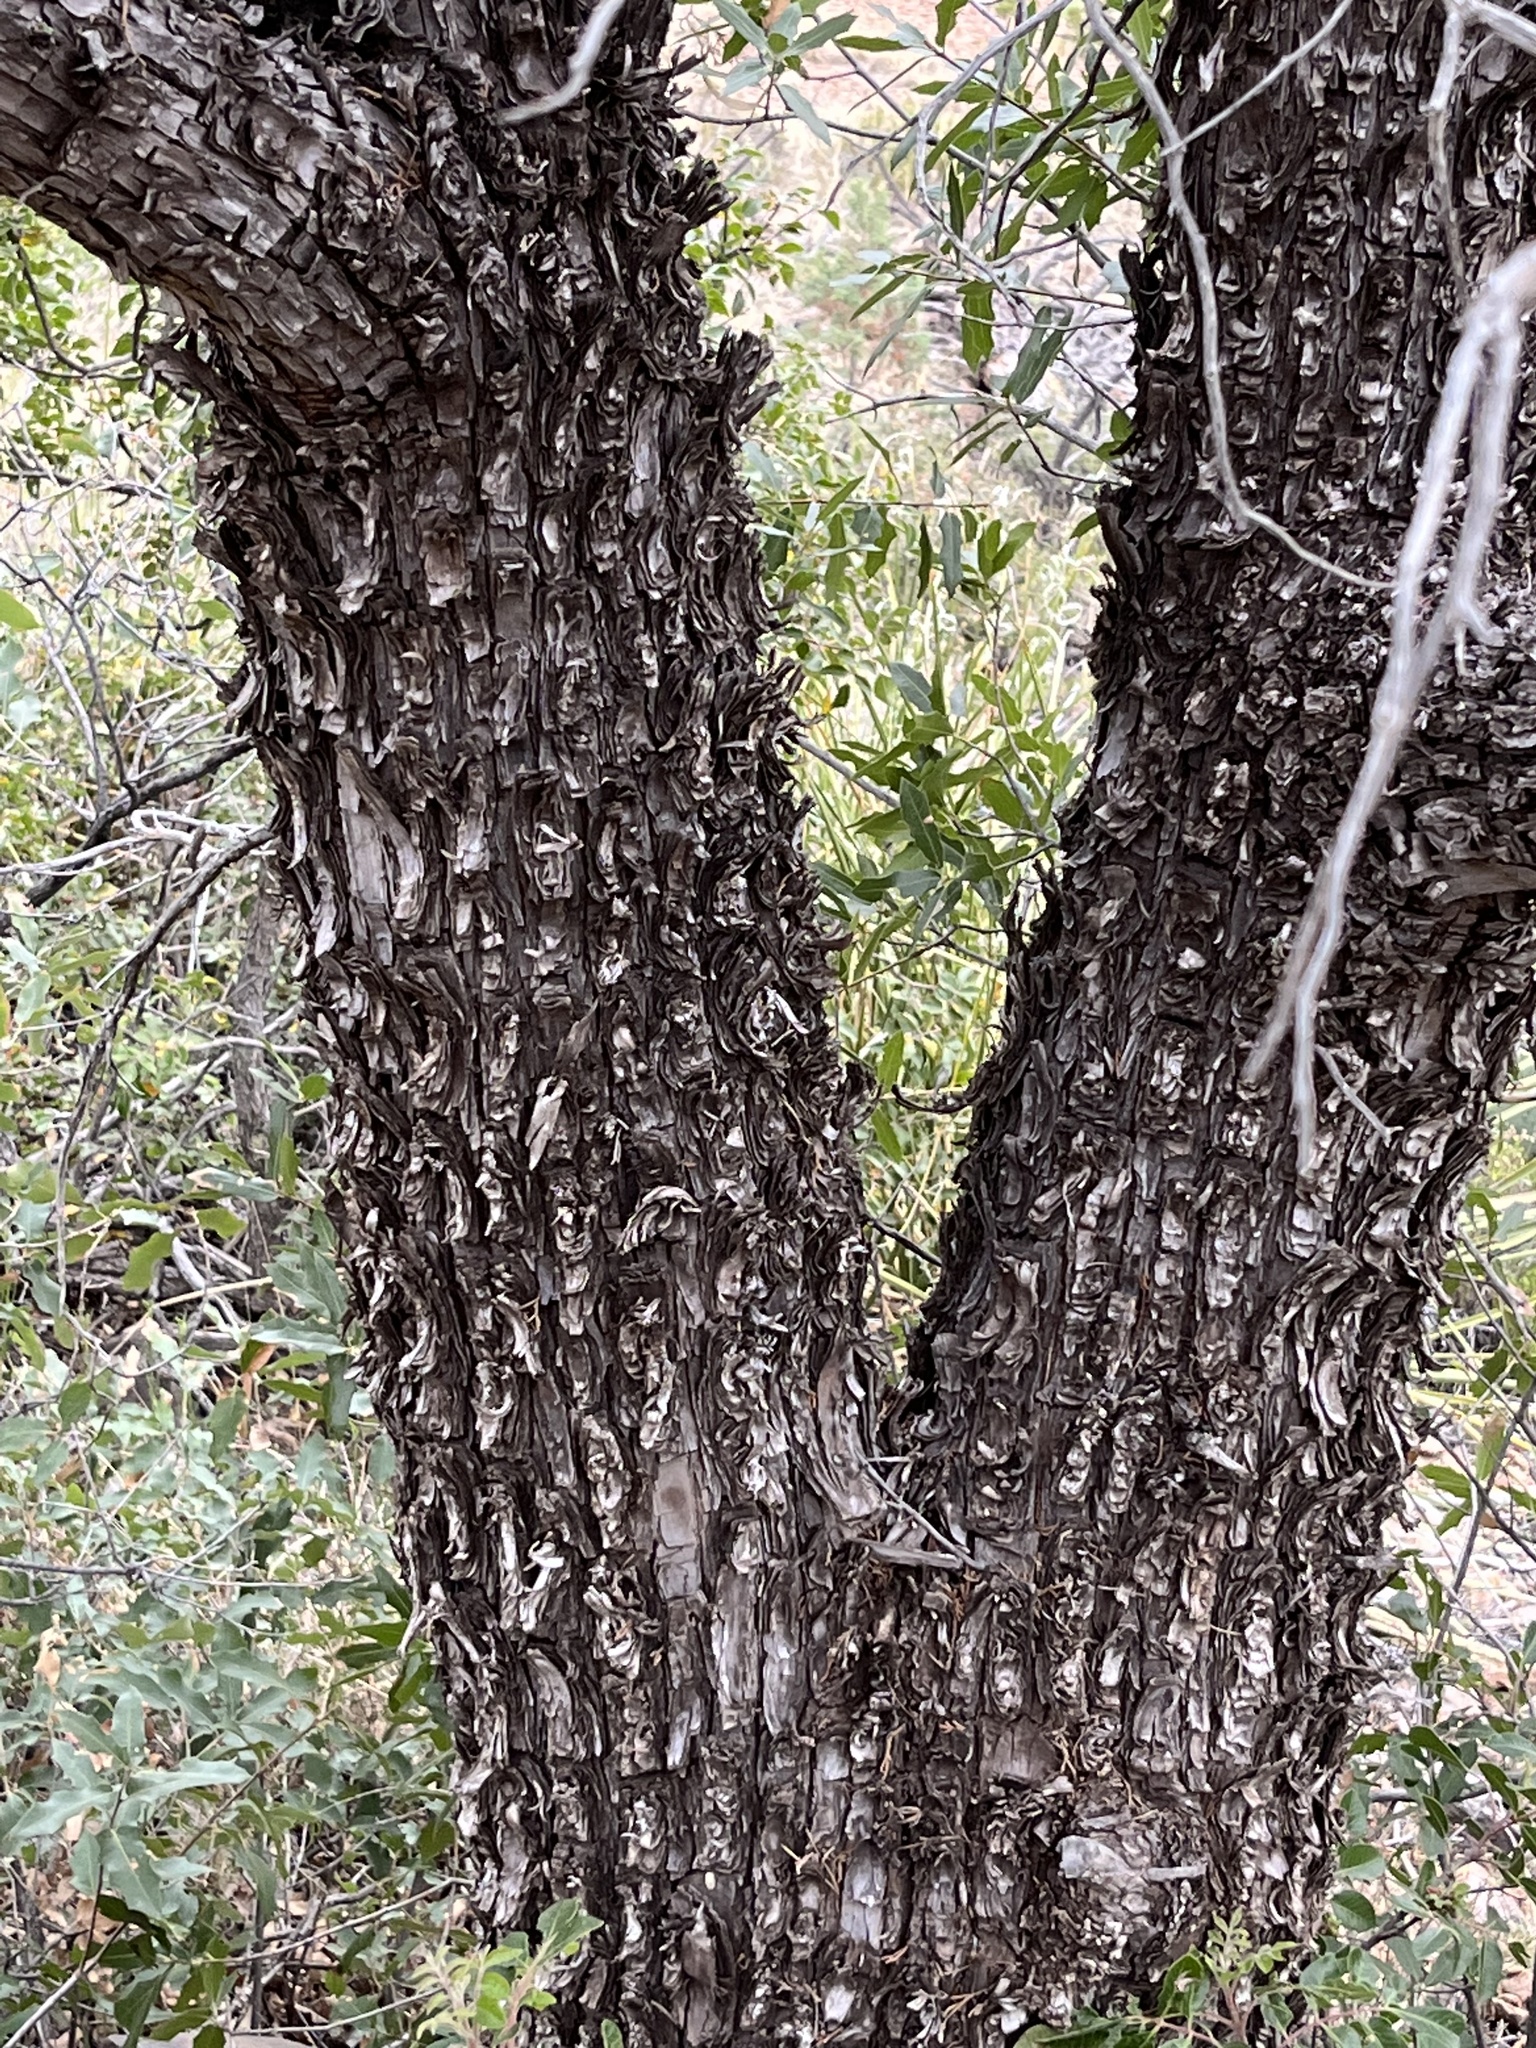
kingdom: Plantae
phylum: Tracheophyta
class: Pinopsida
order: Pinales
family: Cupressaceae
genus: Juniperus
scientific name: Juniperus deppeana
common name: Alligator juniper
